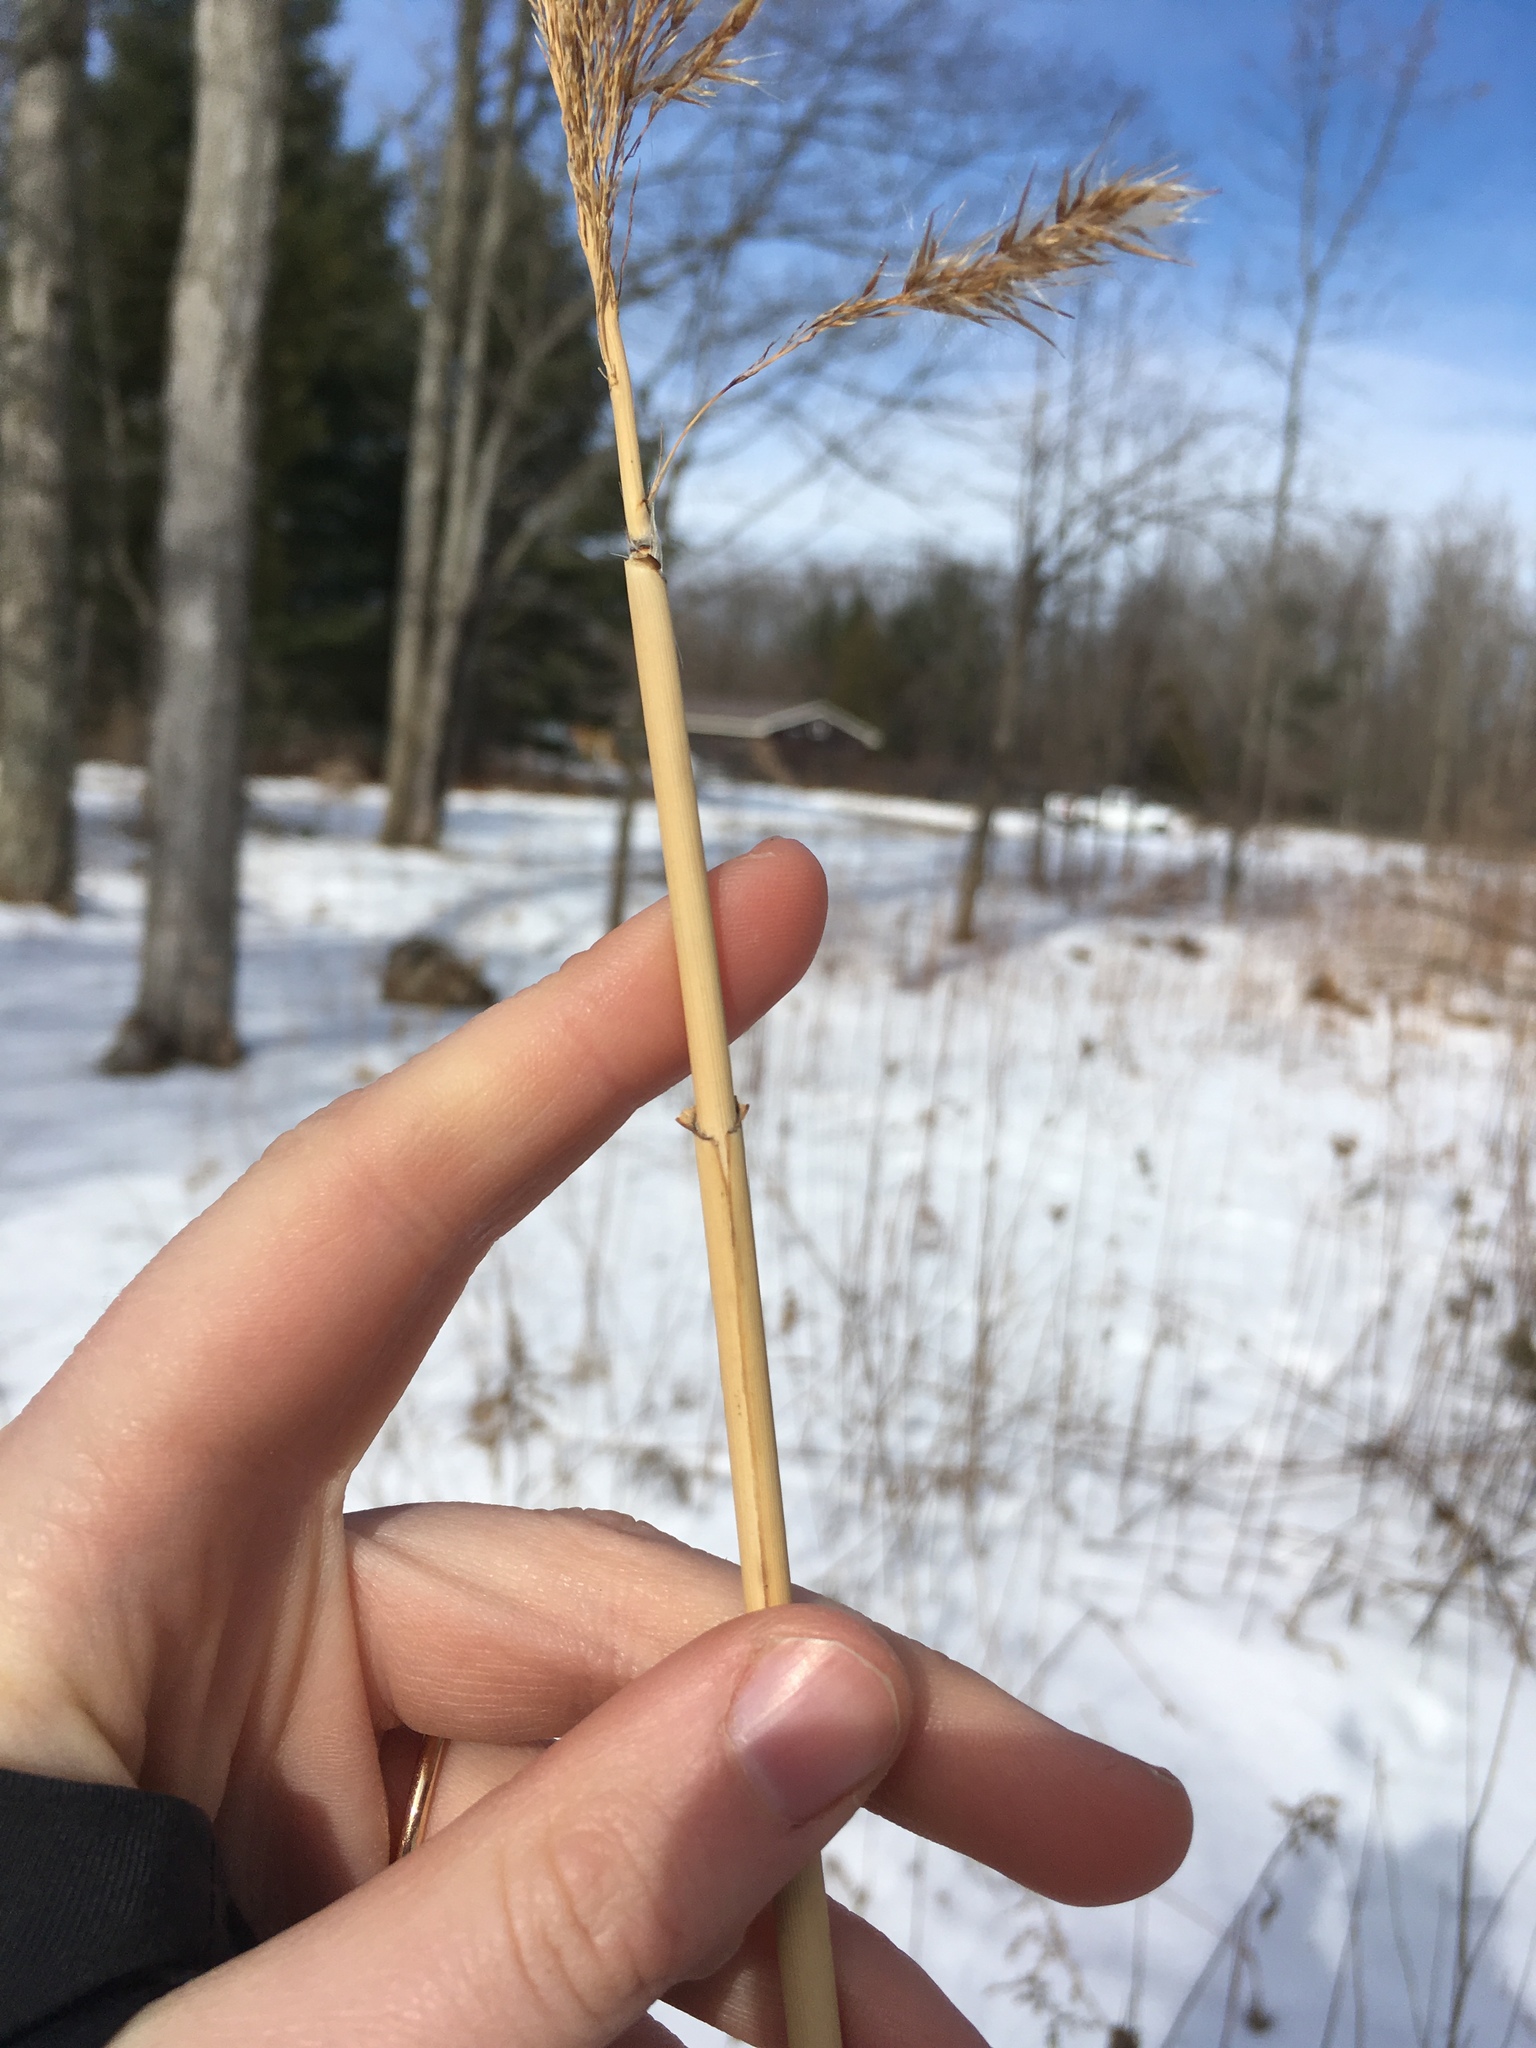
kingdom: Plantae
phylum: Tracheophyta
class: Liliopsida
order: Poales
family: Poaceae
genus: Phragmites
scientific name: Phragmites australis
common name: Common reed
